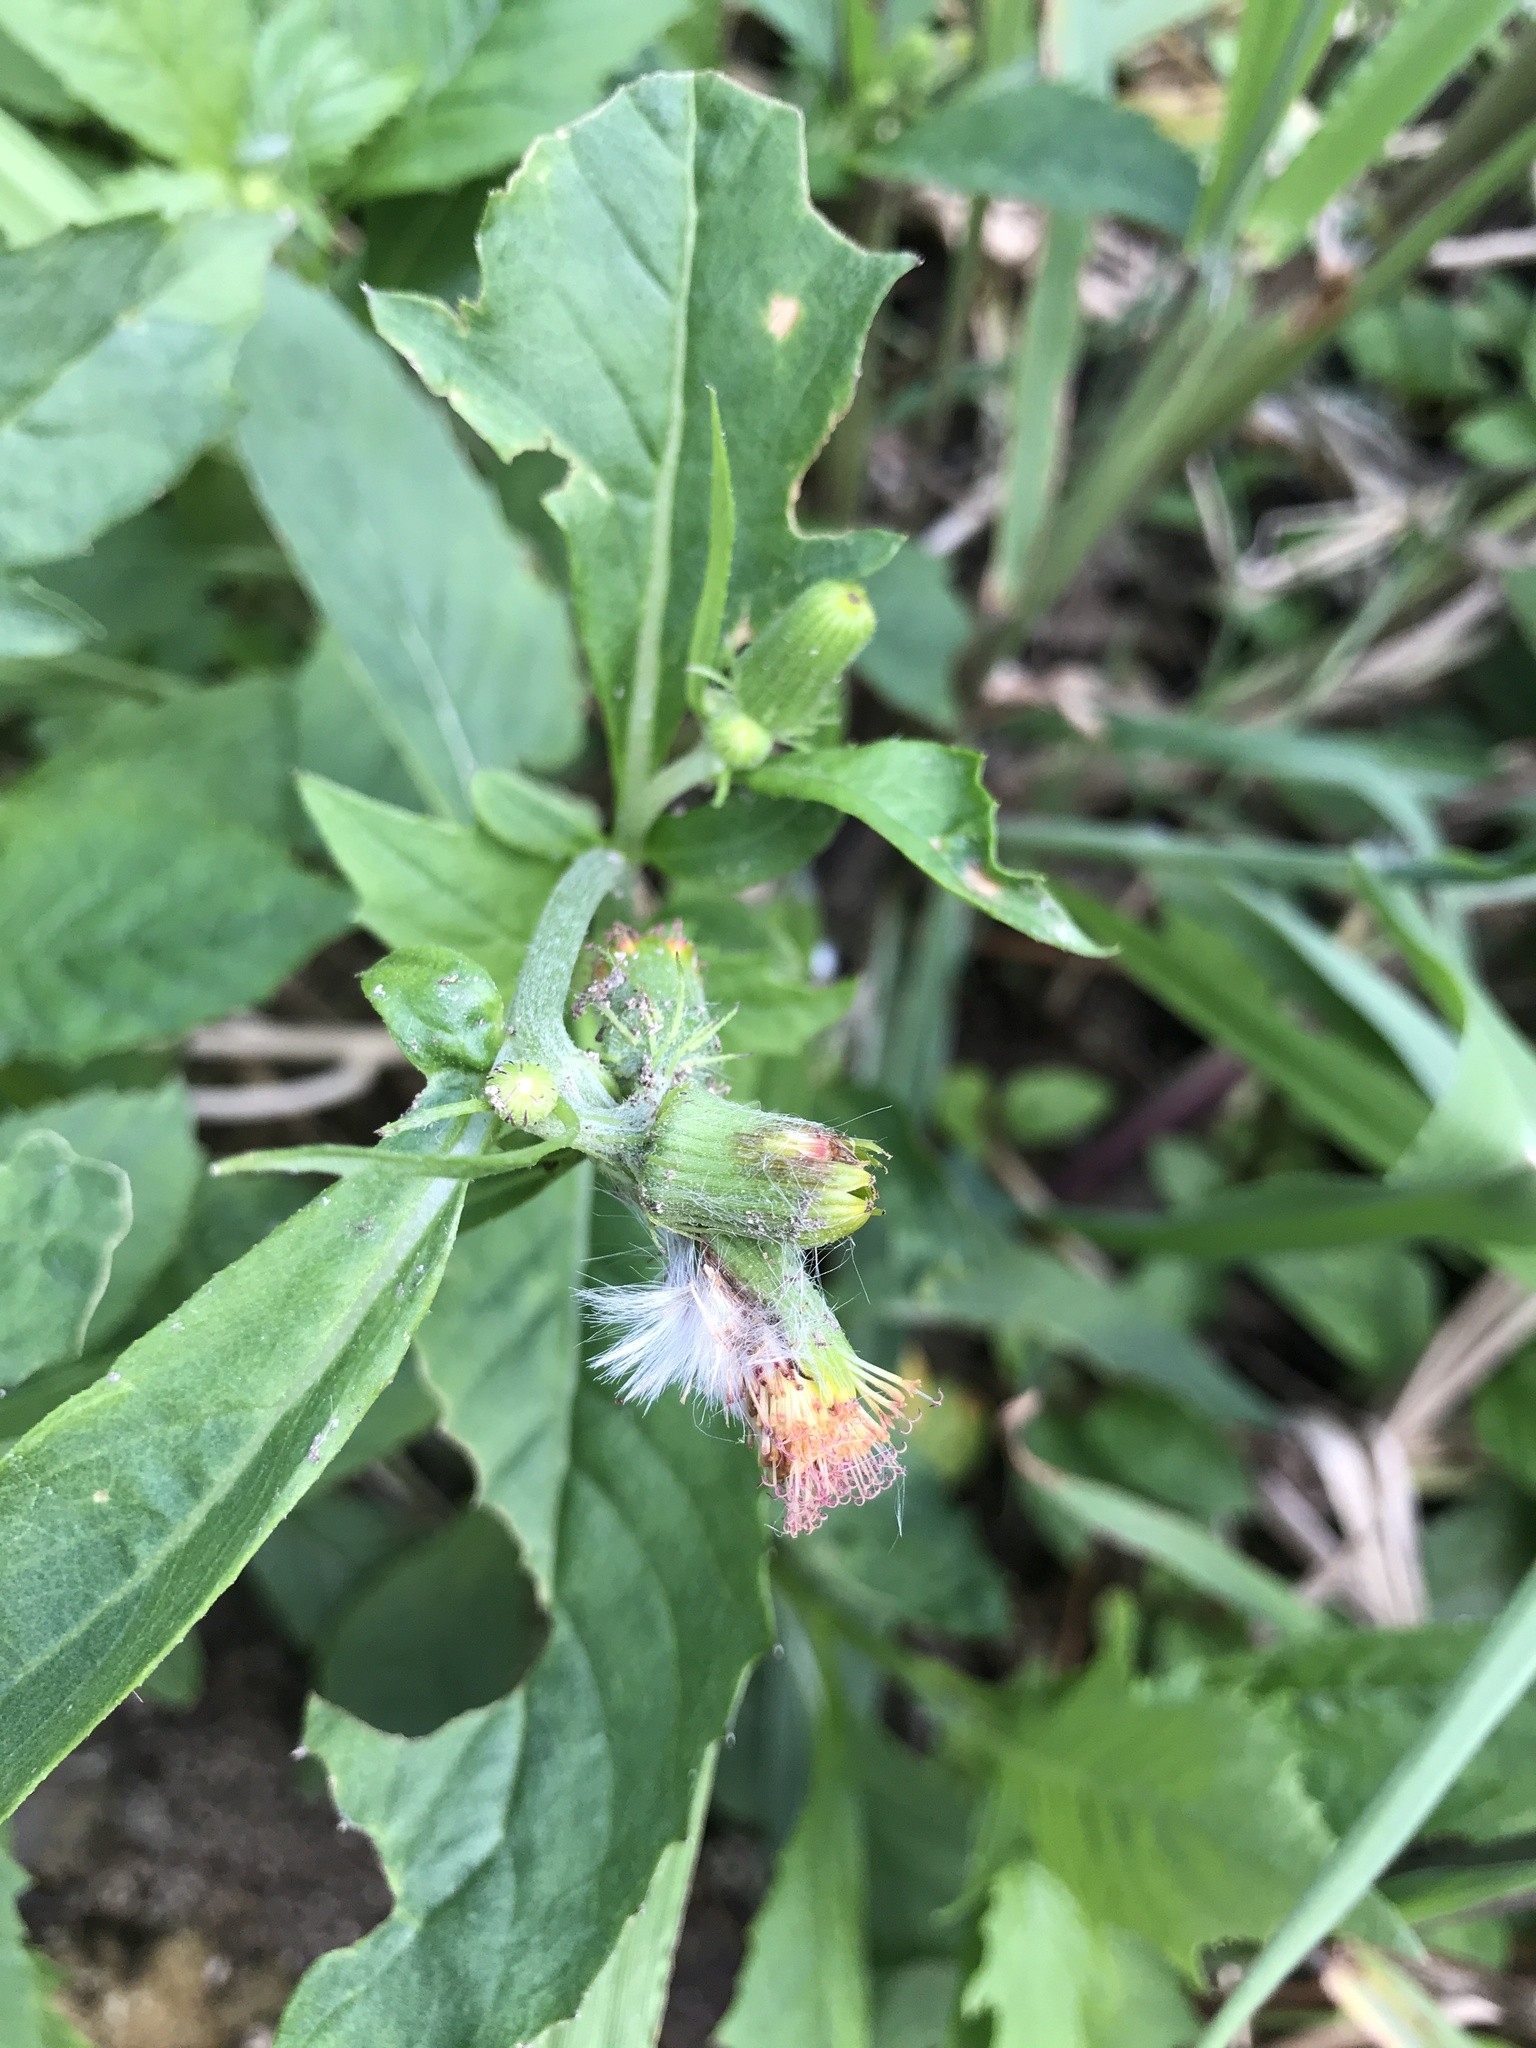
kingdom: Plantae
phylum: Tracheophyta
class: Magnoliopsida
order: Asterales
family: Asteraceae
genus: Crassocephalum
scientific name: Crassocephalum crepidioides
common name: Redflower ragleaf
